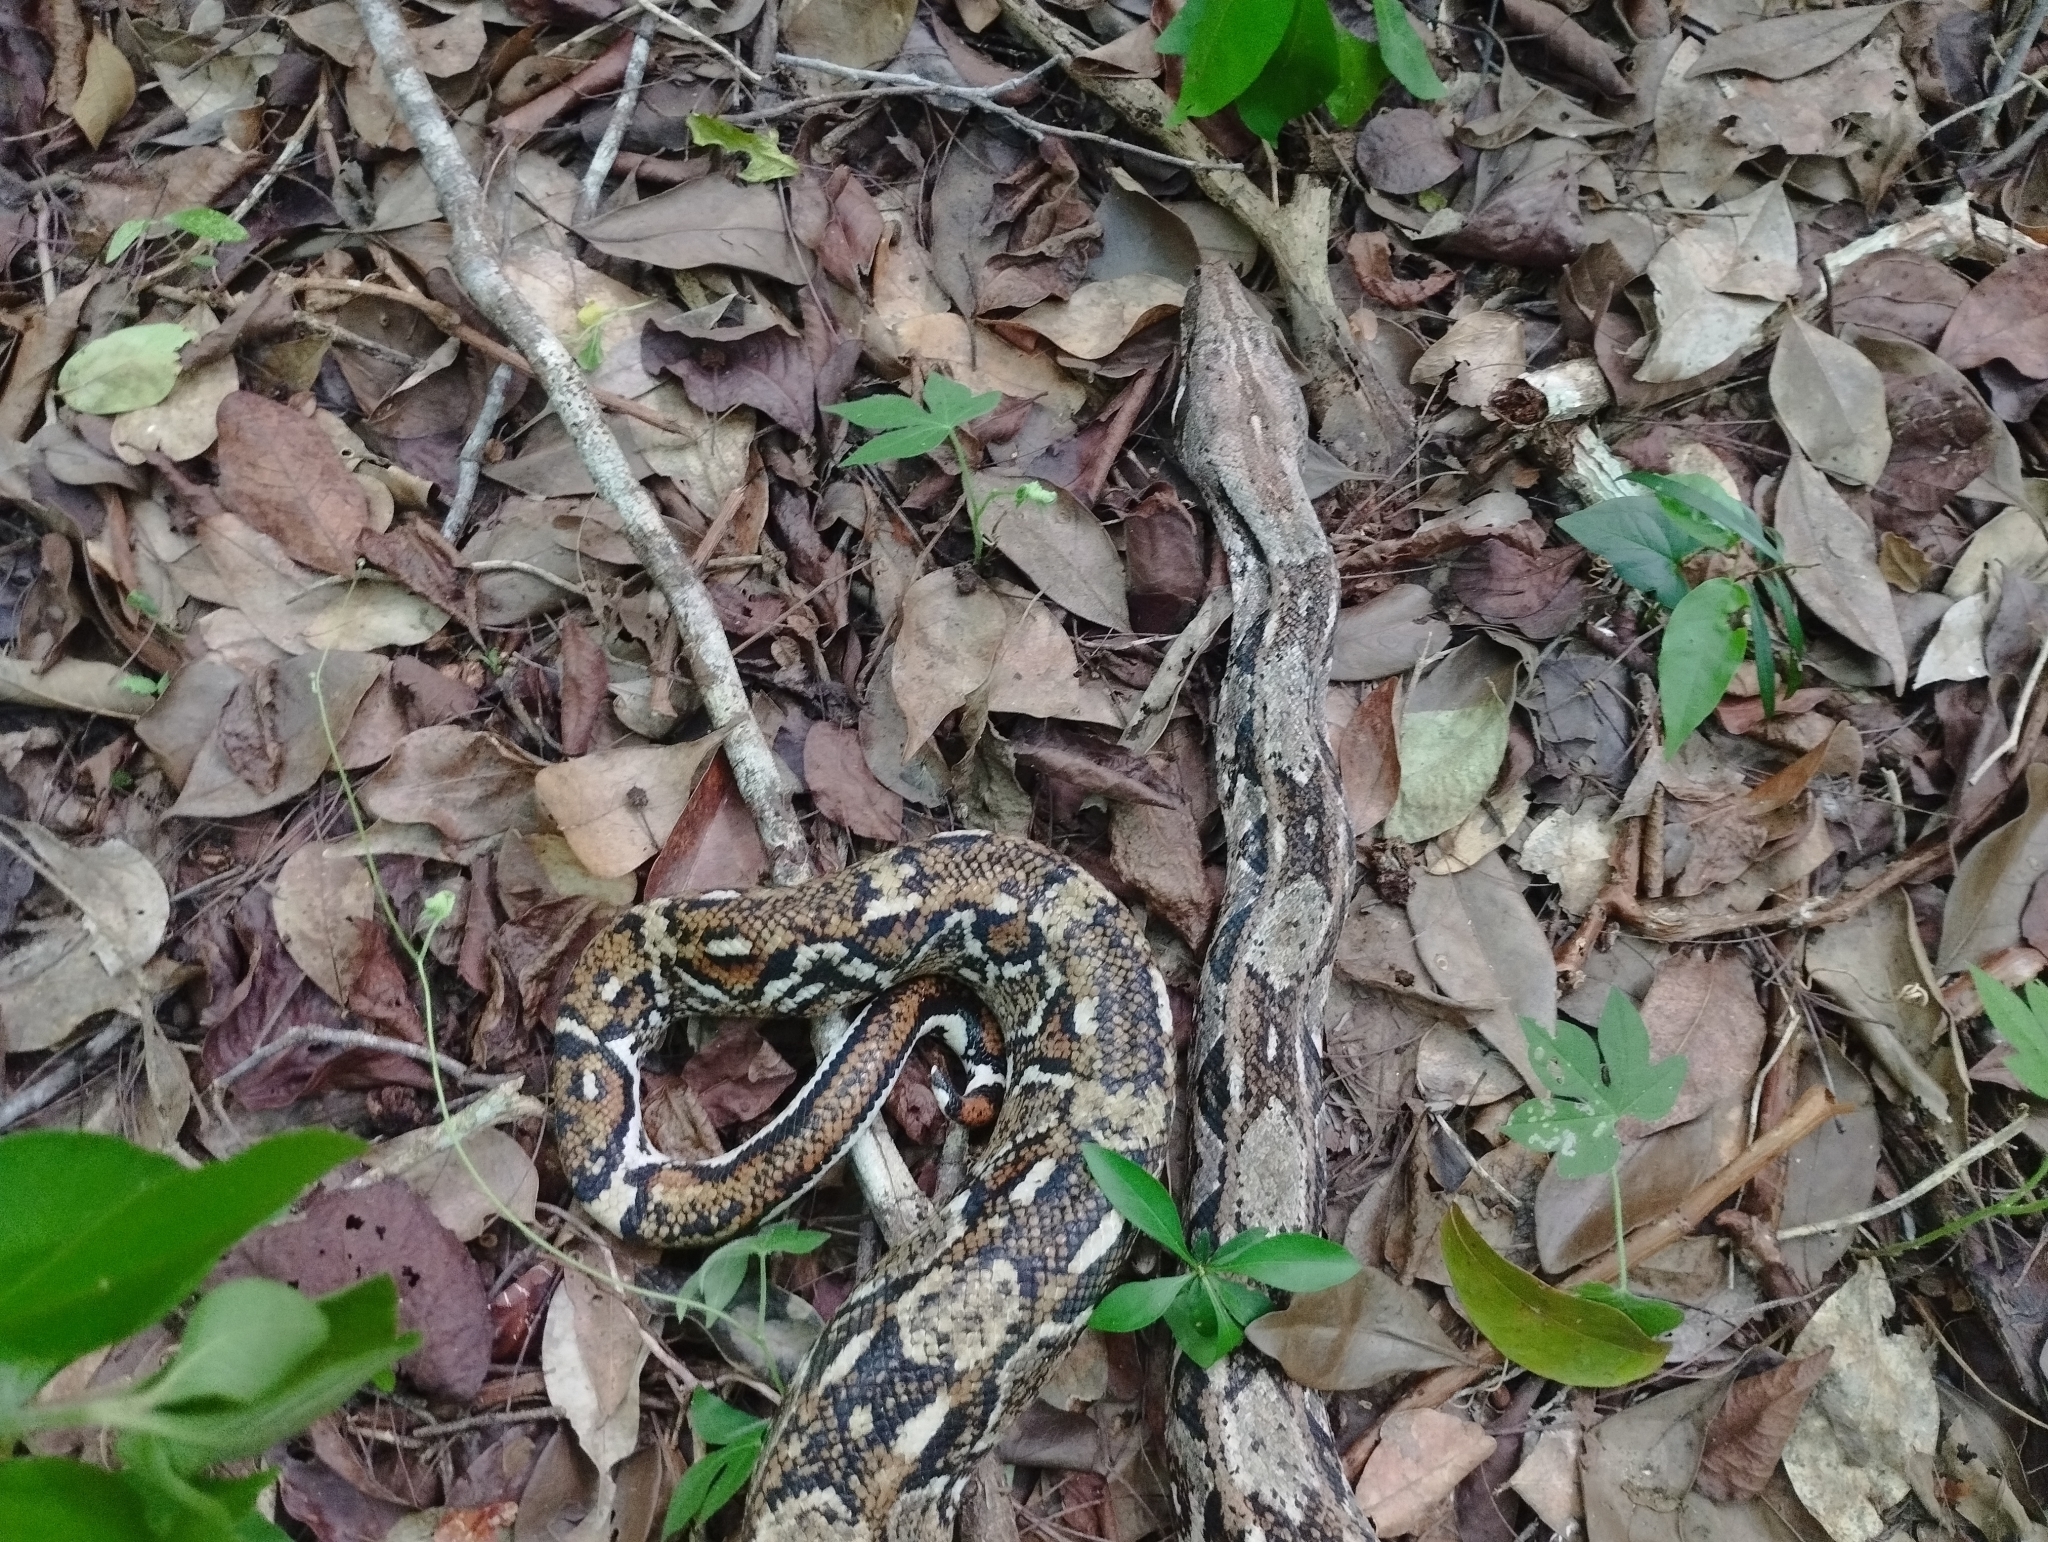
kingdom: Animalia
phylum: Chordata
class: Squamata
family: Boidae
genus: Boa
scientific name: Boa imperator
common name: Central american boa
